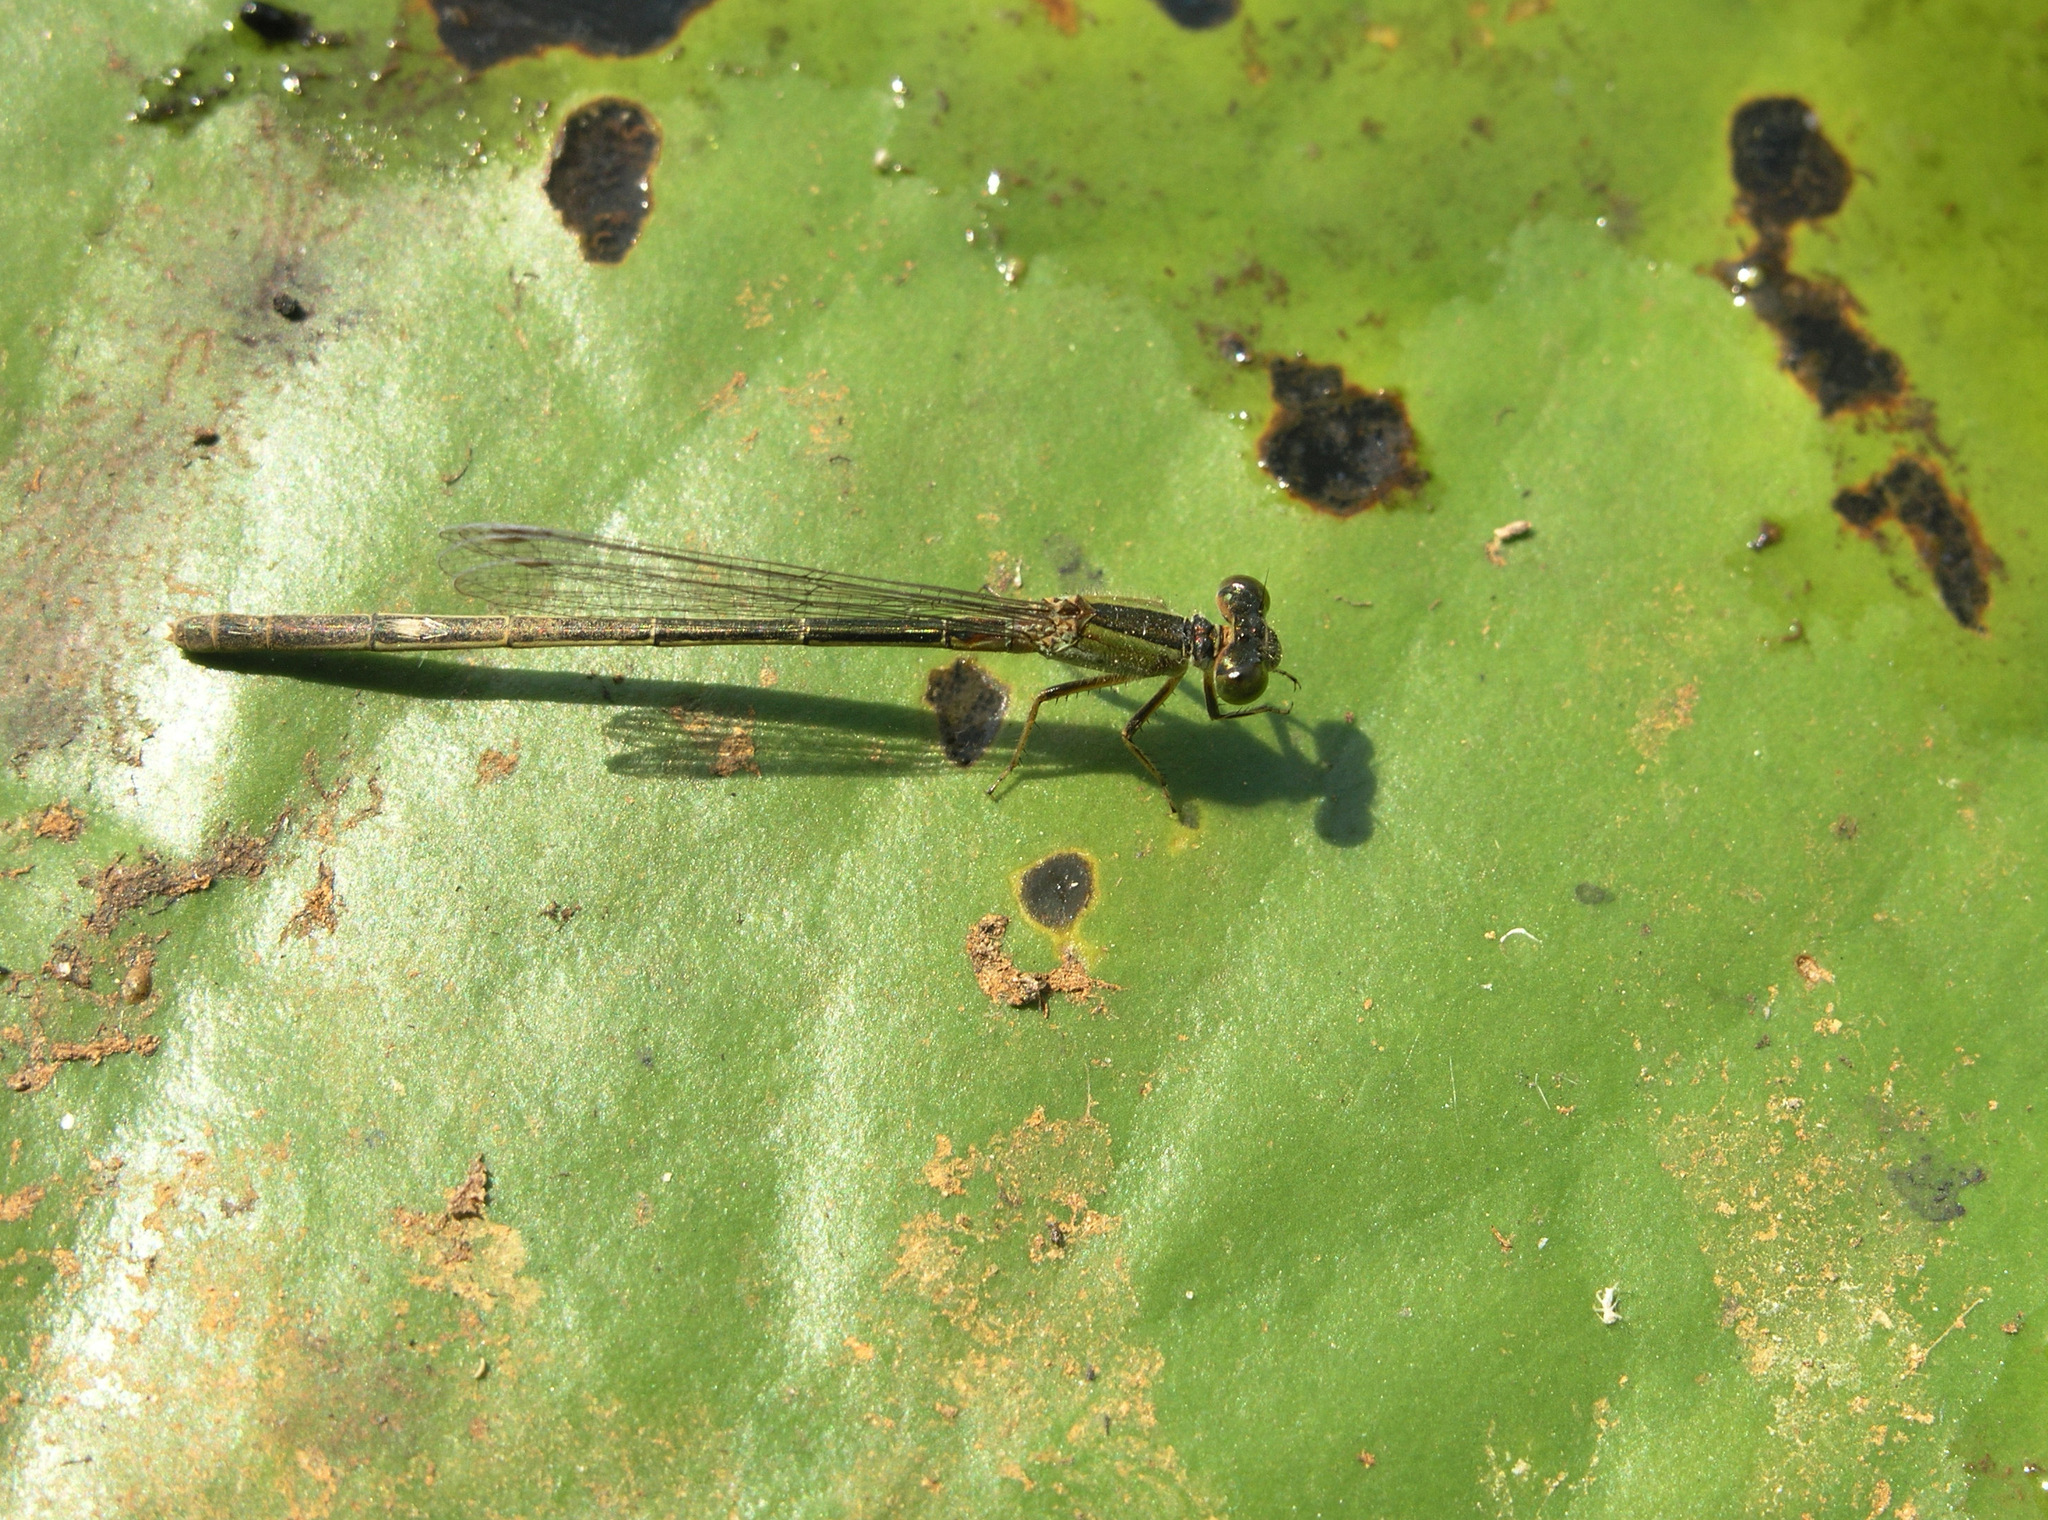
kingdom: Animalia
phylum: Arthropoda
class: Insecta
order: Odonata
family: Coenagrionidae
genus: Ischnura
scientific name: Ischnura senegalensis
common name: Tropical bluetail
